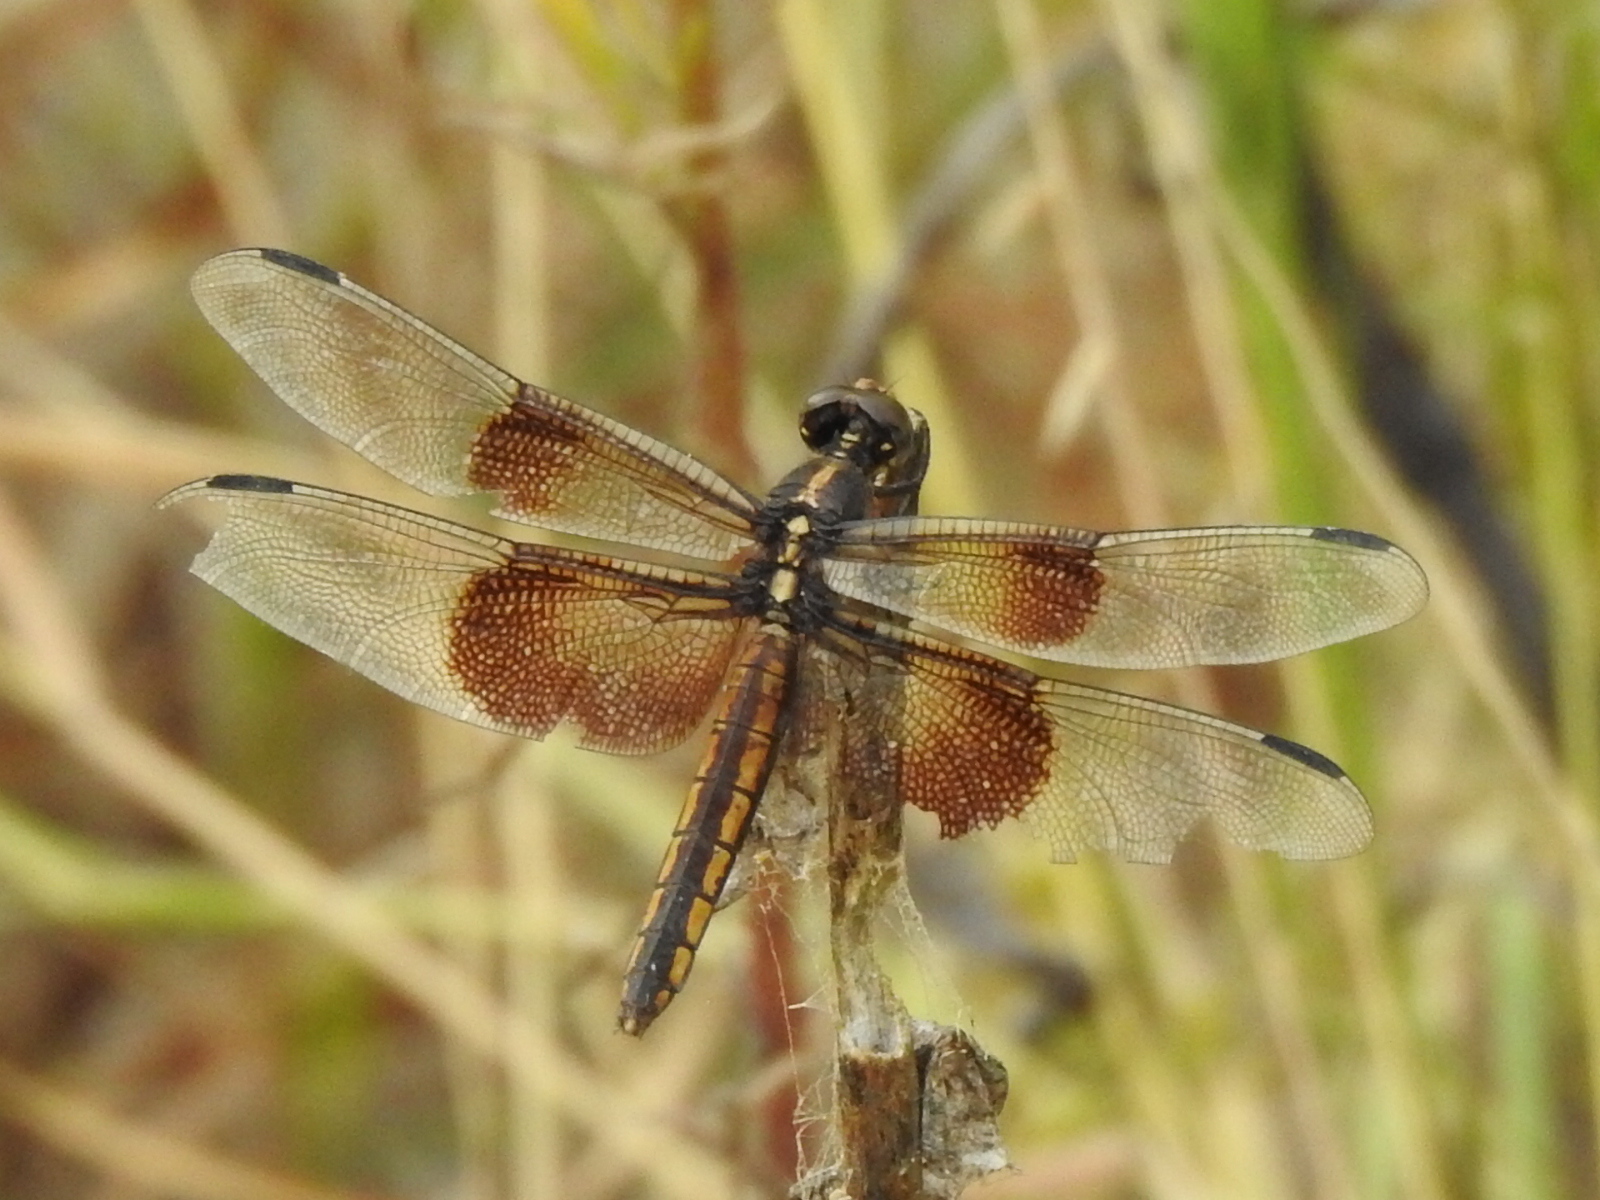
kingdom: Animalia
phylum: Arthropoda
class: Insecta
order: Odonata
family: Libellulidae
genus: Libellula
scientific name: Libellula luctuosa
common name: Widow skimmer
